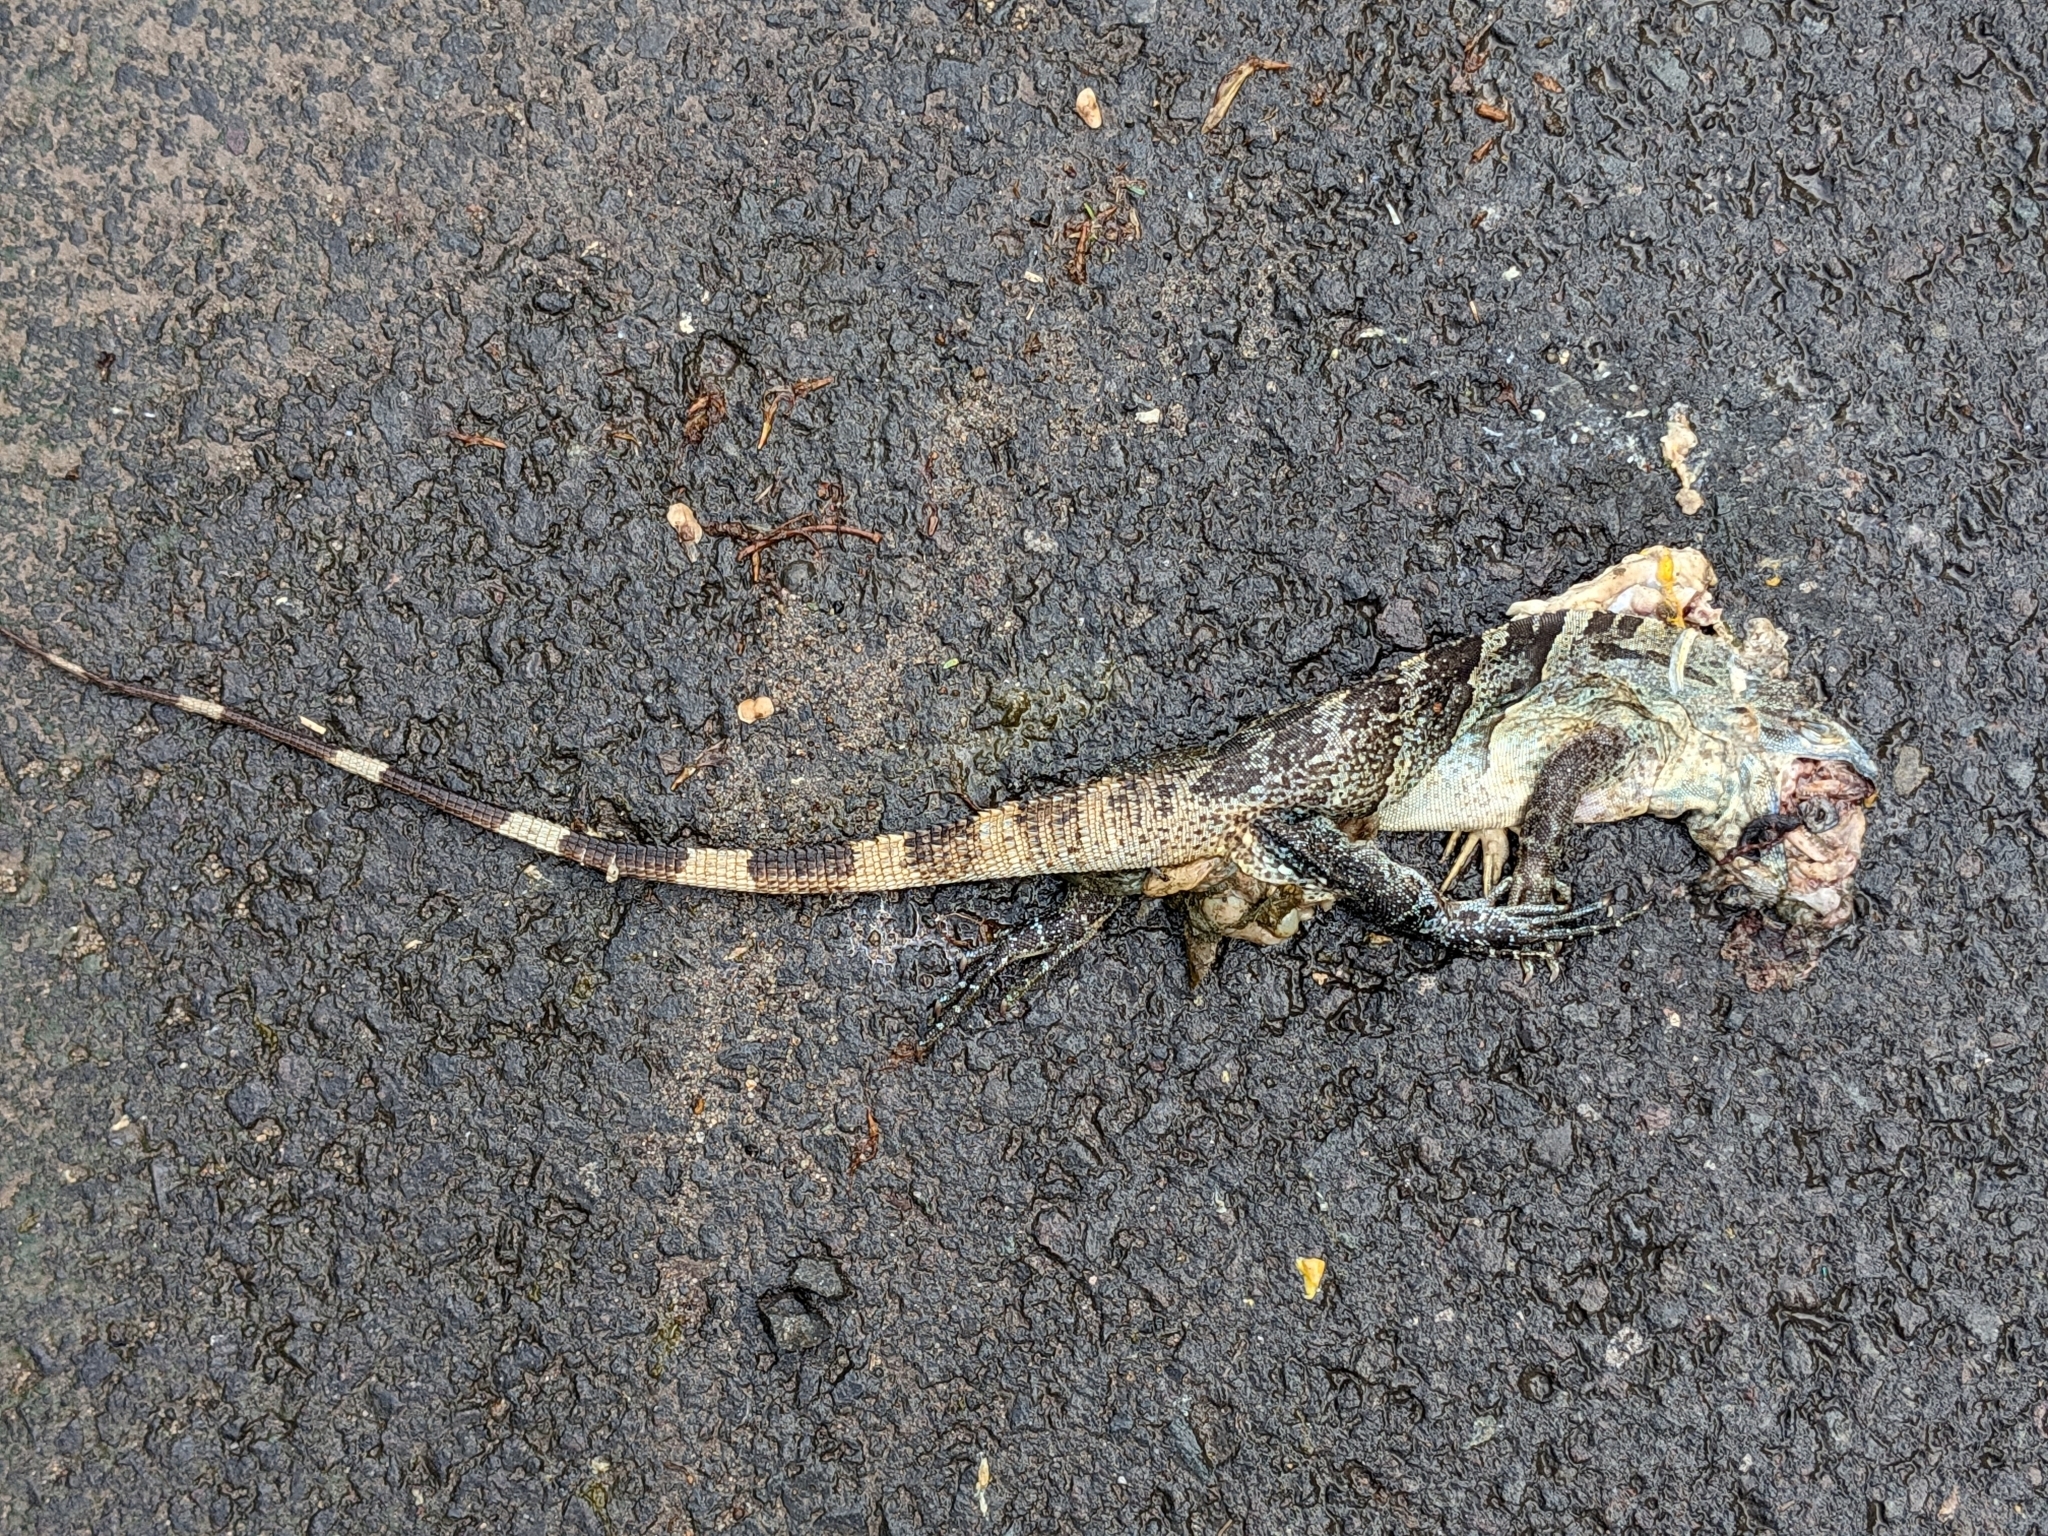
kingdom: Animalia
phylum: Chordata
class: Squamata
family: Iguanidae
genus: Ctenosaura
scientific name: Ctenosaura similis
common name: Black spiny-tailed iguana
